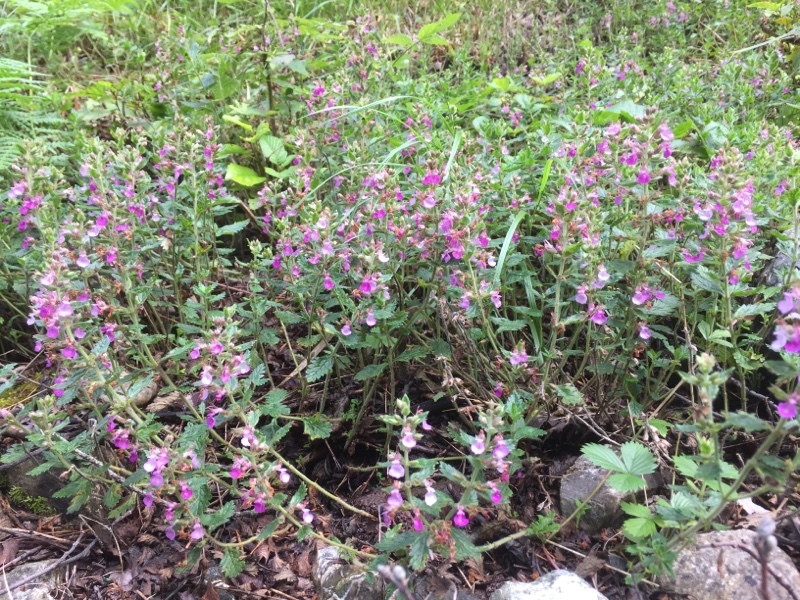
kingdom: Plantae
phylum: Tracheophyta
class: Magnoliopsida
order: Lamiales
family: Lamiaceae
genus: Teucrium
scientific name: Teucrium chamaedrys
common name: Wall germander
